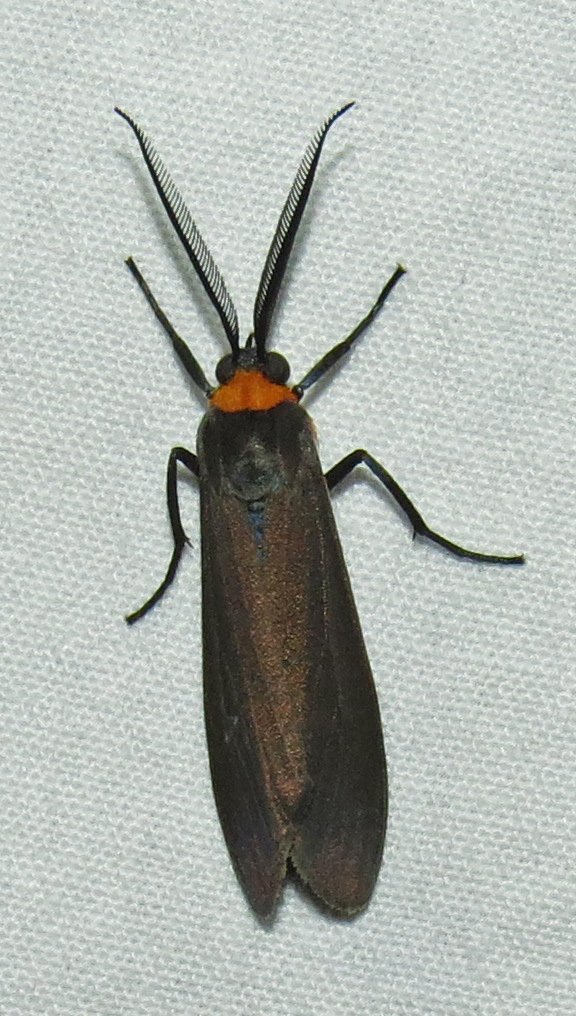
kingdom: Animalia
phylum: Arthropoda
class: Insecta
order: Lepidoptera
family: Erebidae
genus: Cisseps
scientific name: Cisseps fulvicollis
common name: Yellow-collared scape moth
